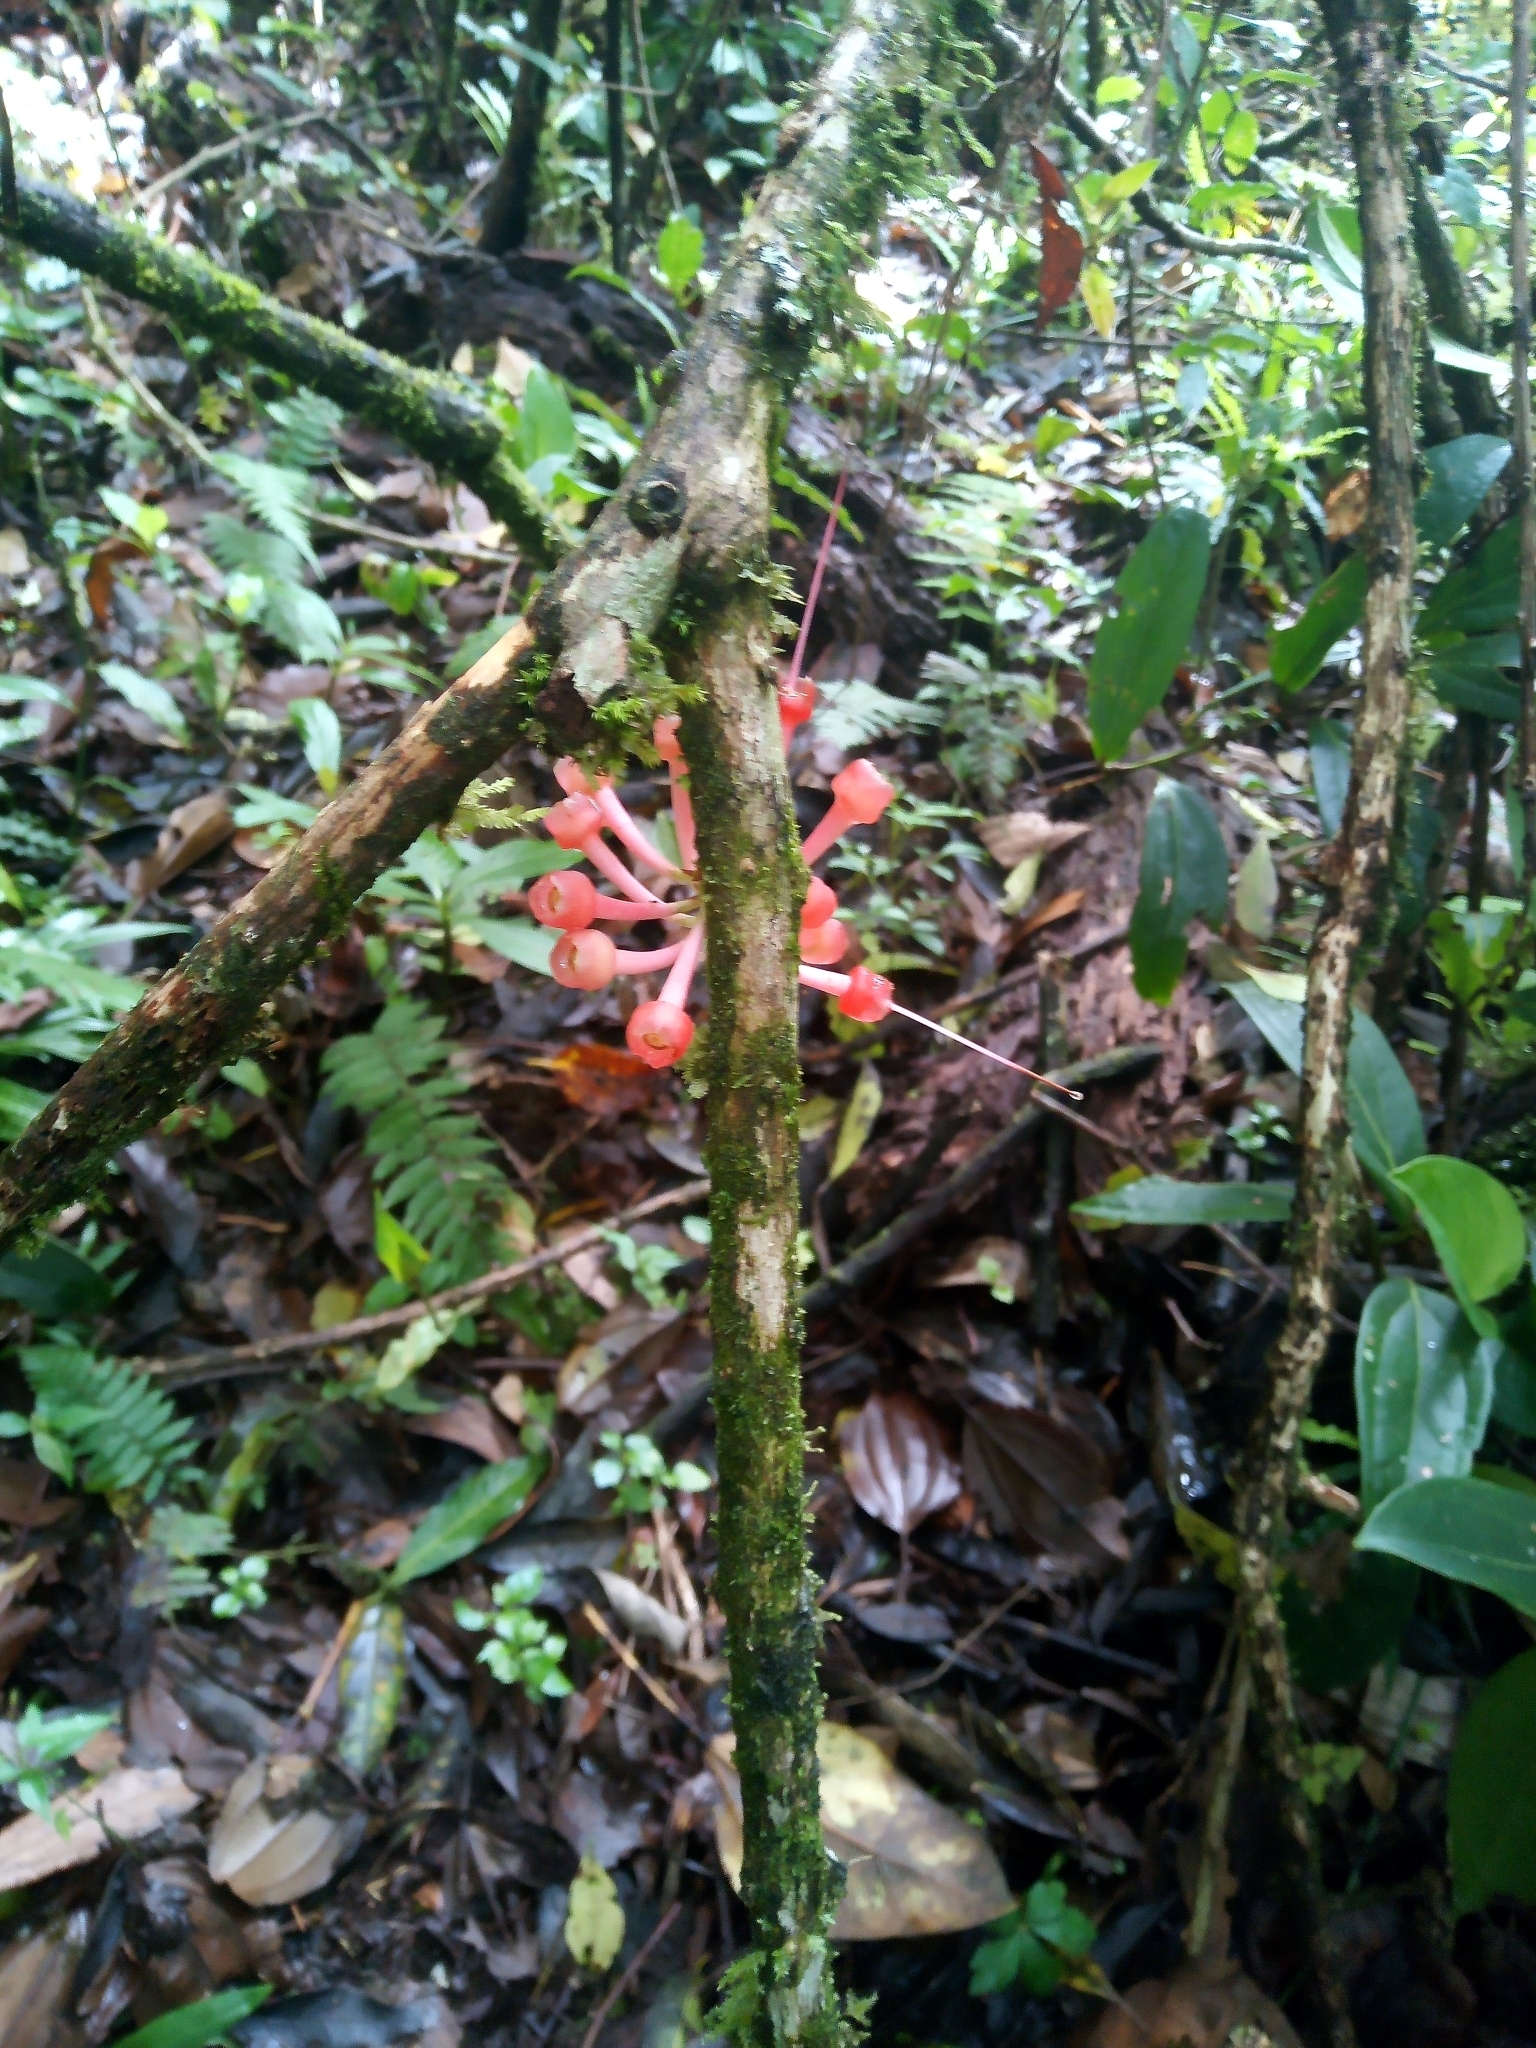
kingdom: Plantae
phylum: Tracheophyta
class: Magnoliopsida
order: Ericales
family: Ericaceae
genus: Satyria
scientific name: Satyria warszewiczii
